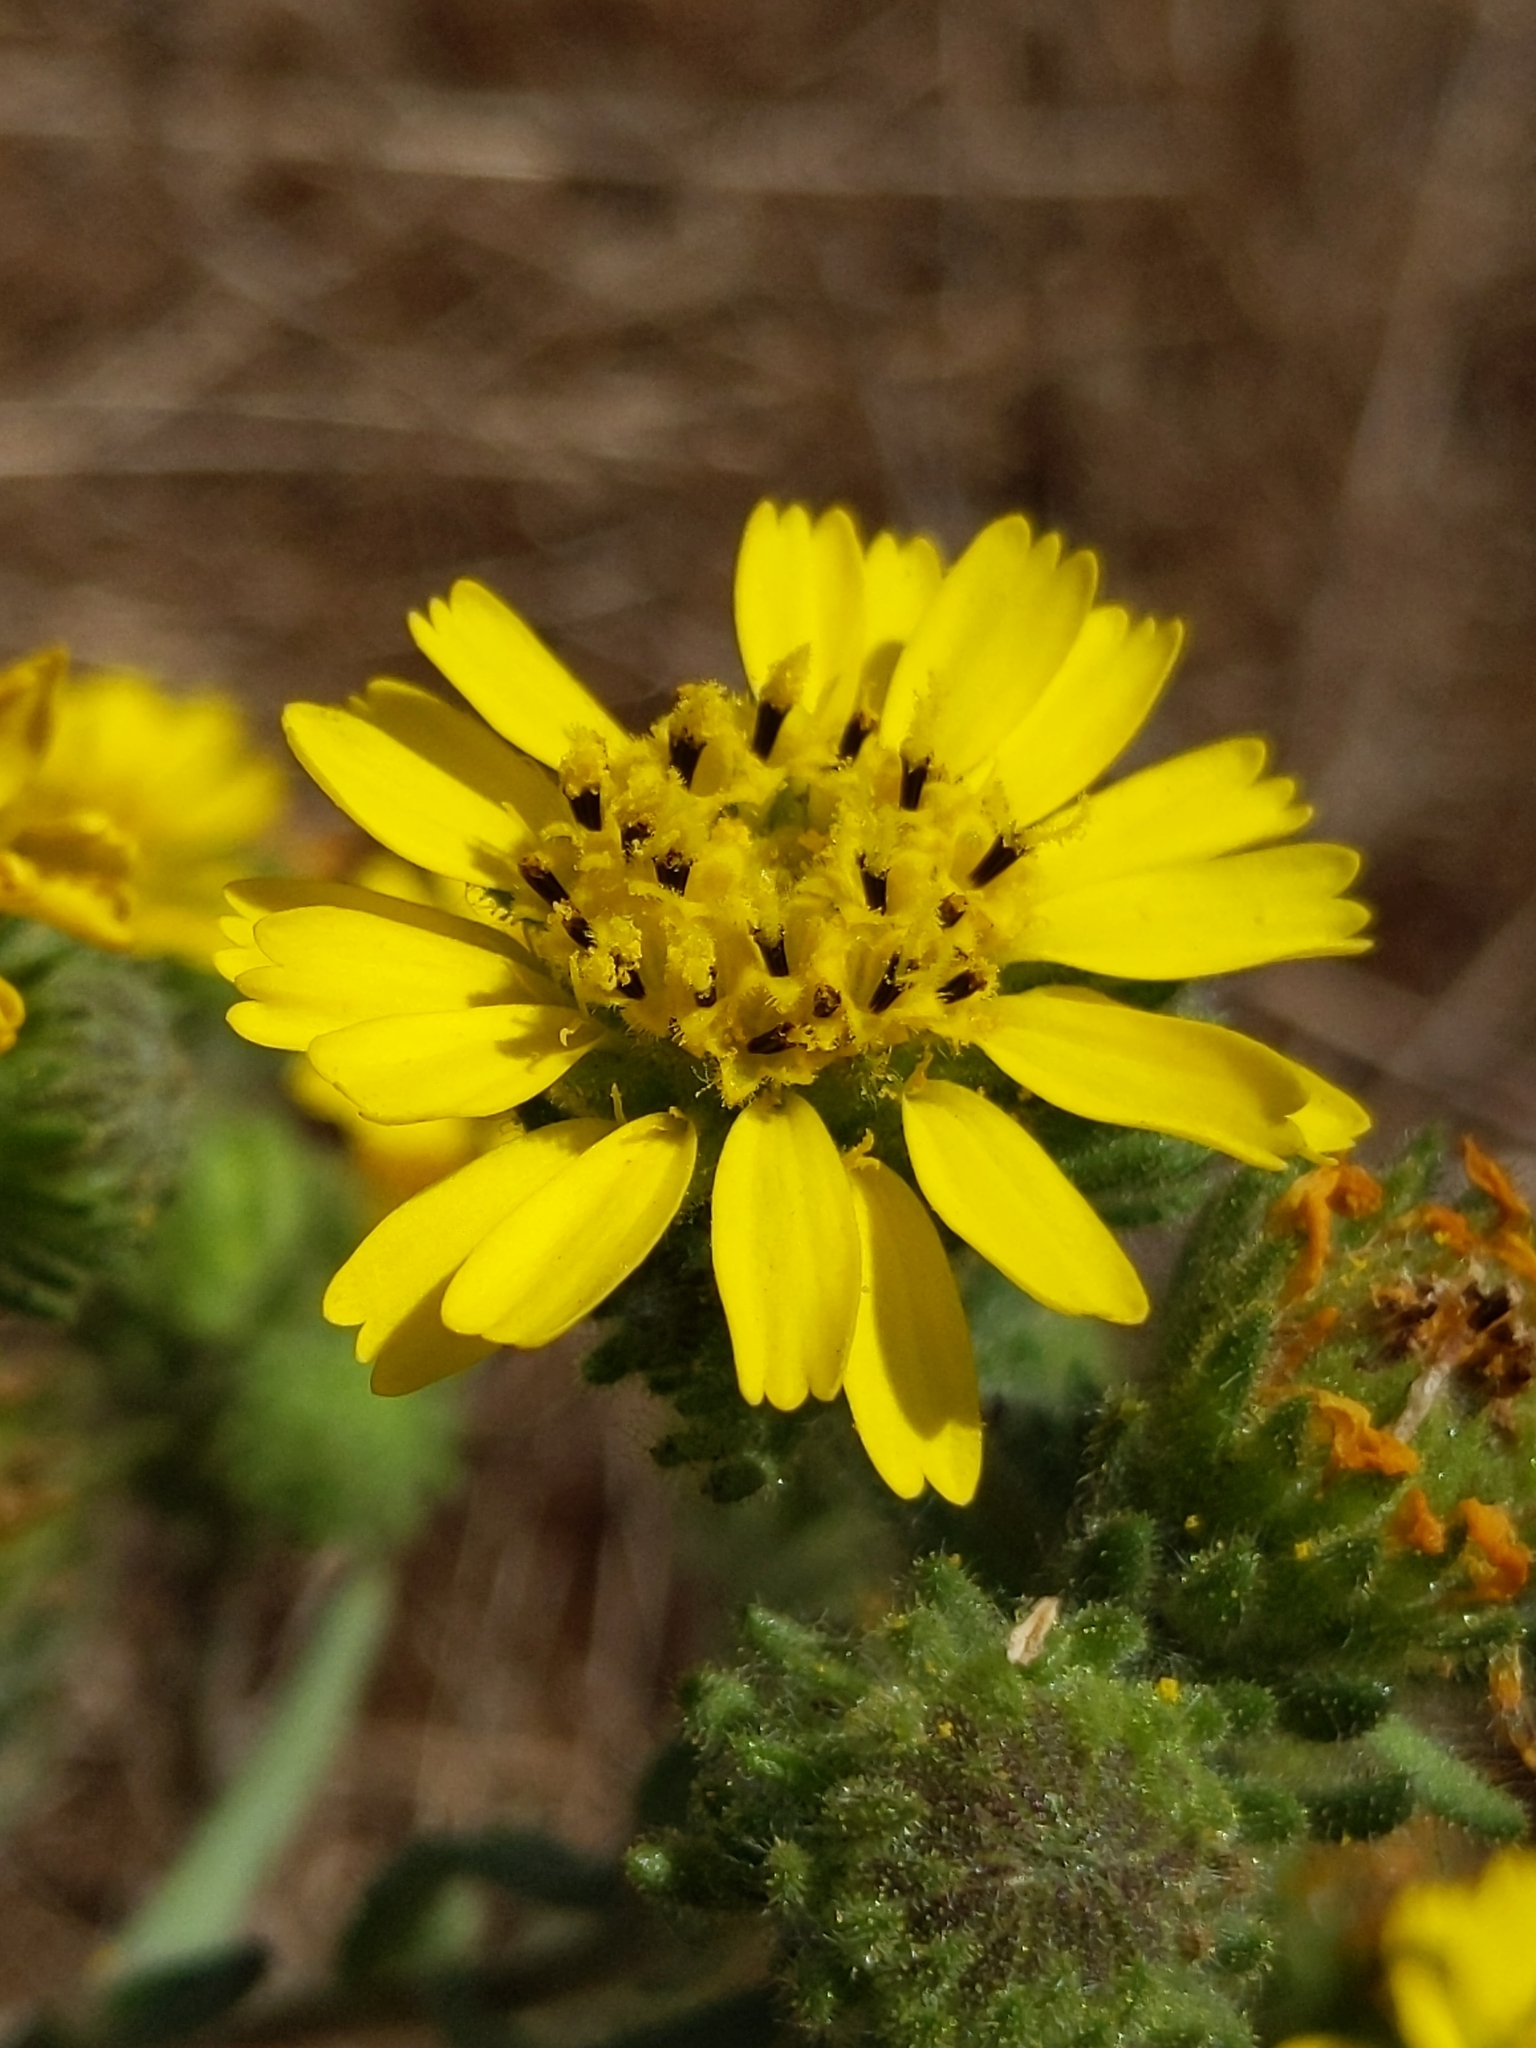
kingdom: Plantae
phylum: Tracheophyta
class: Magnoliopsida
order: Asterales
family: Asteraceae
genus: Deinandra
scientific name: Deinandra corymbosa
